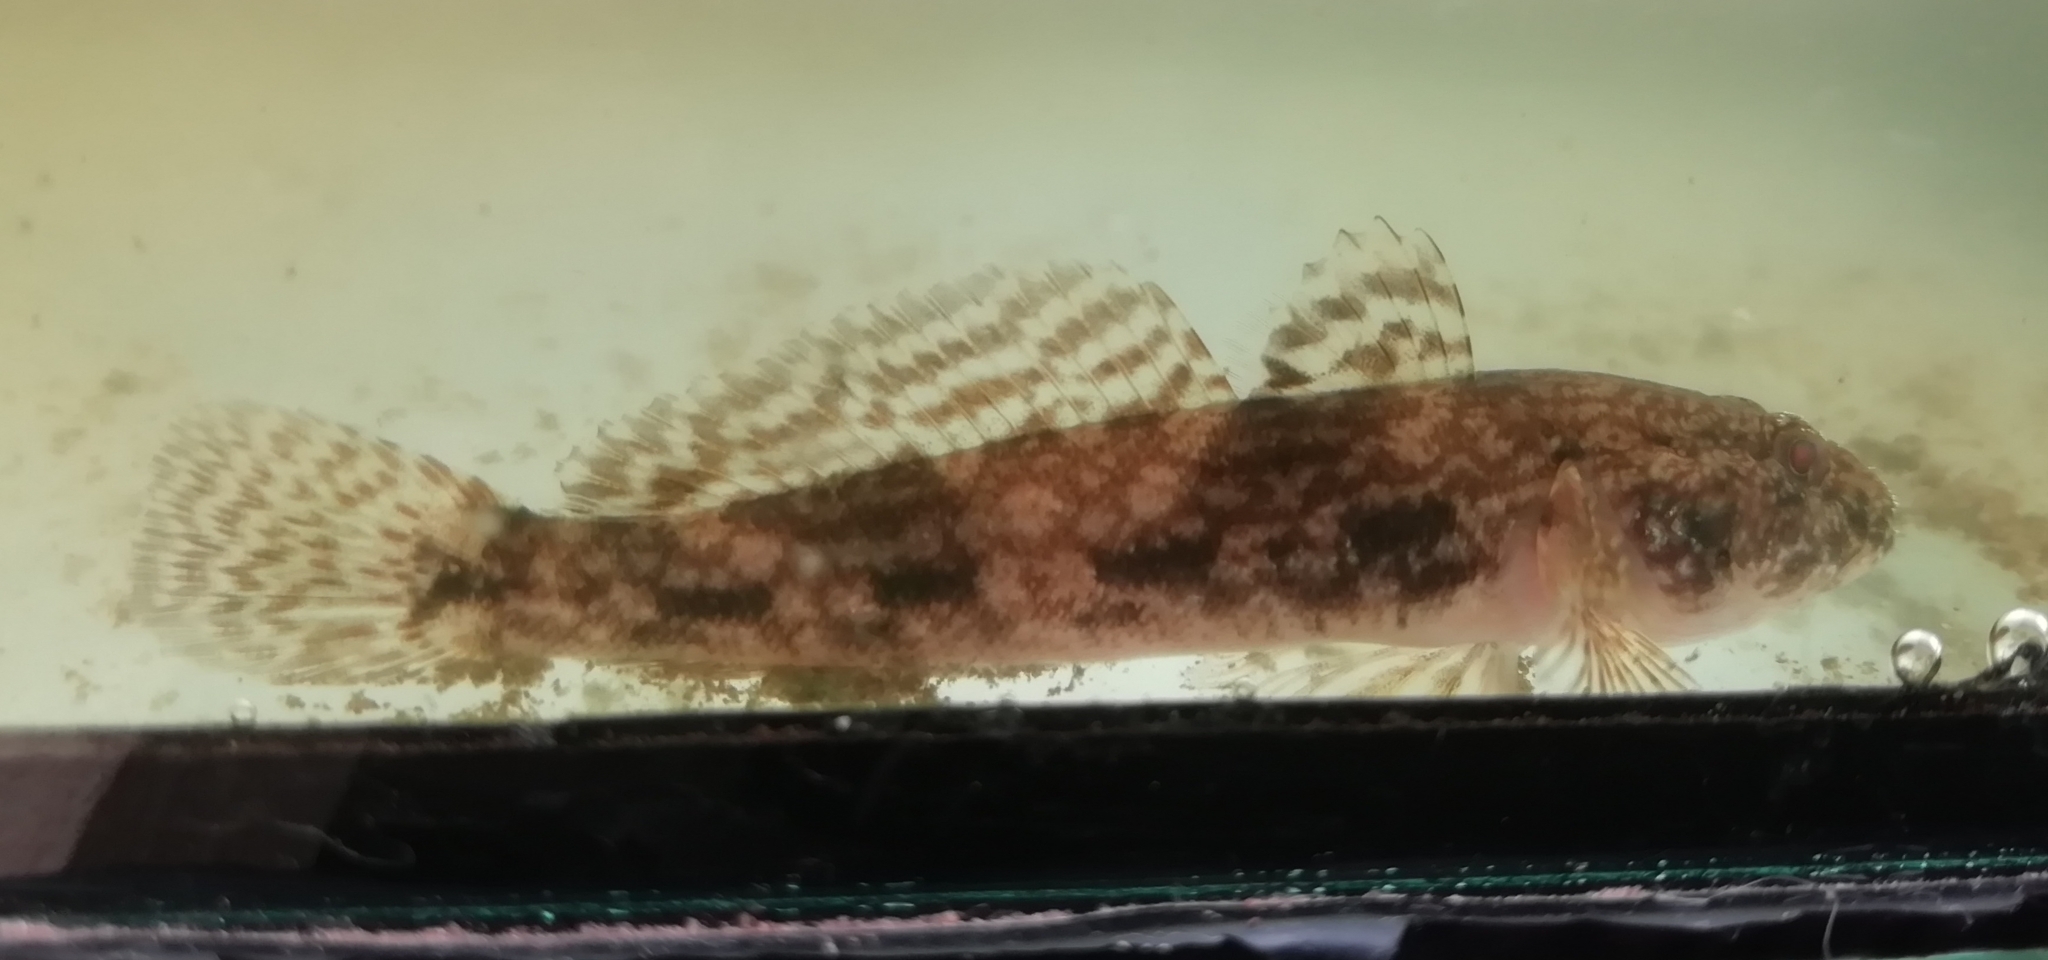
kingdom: Animalia
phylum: Chordata
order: Perciformes
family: Gobiidae
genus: Ponticola
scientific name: Ponticola gorlap
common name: Caspian bighead goby
